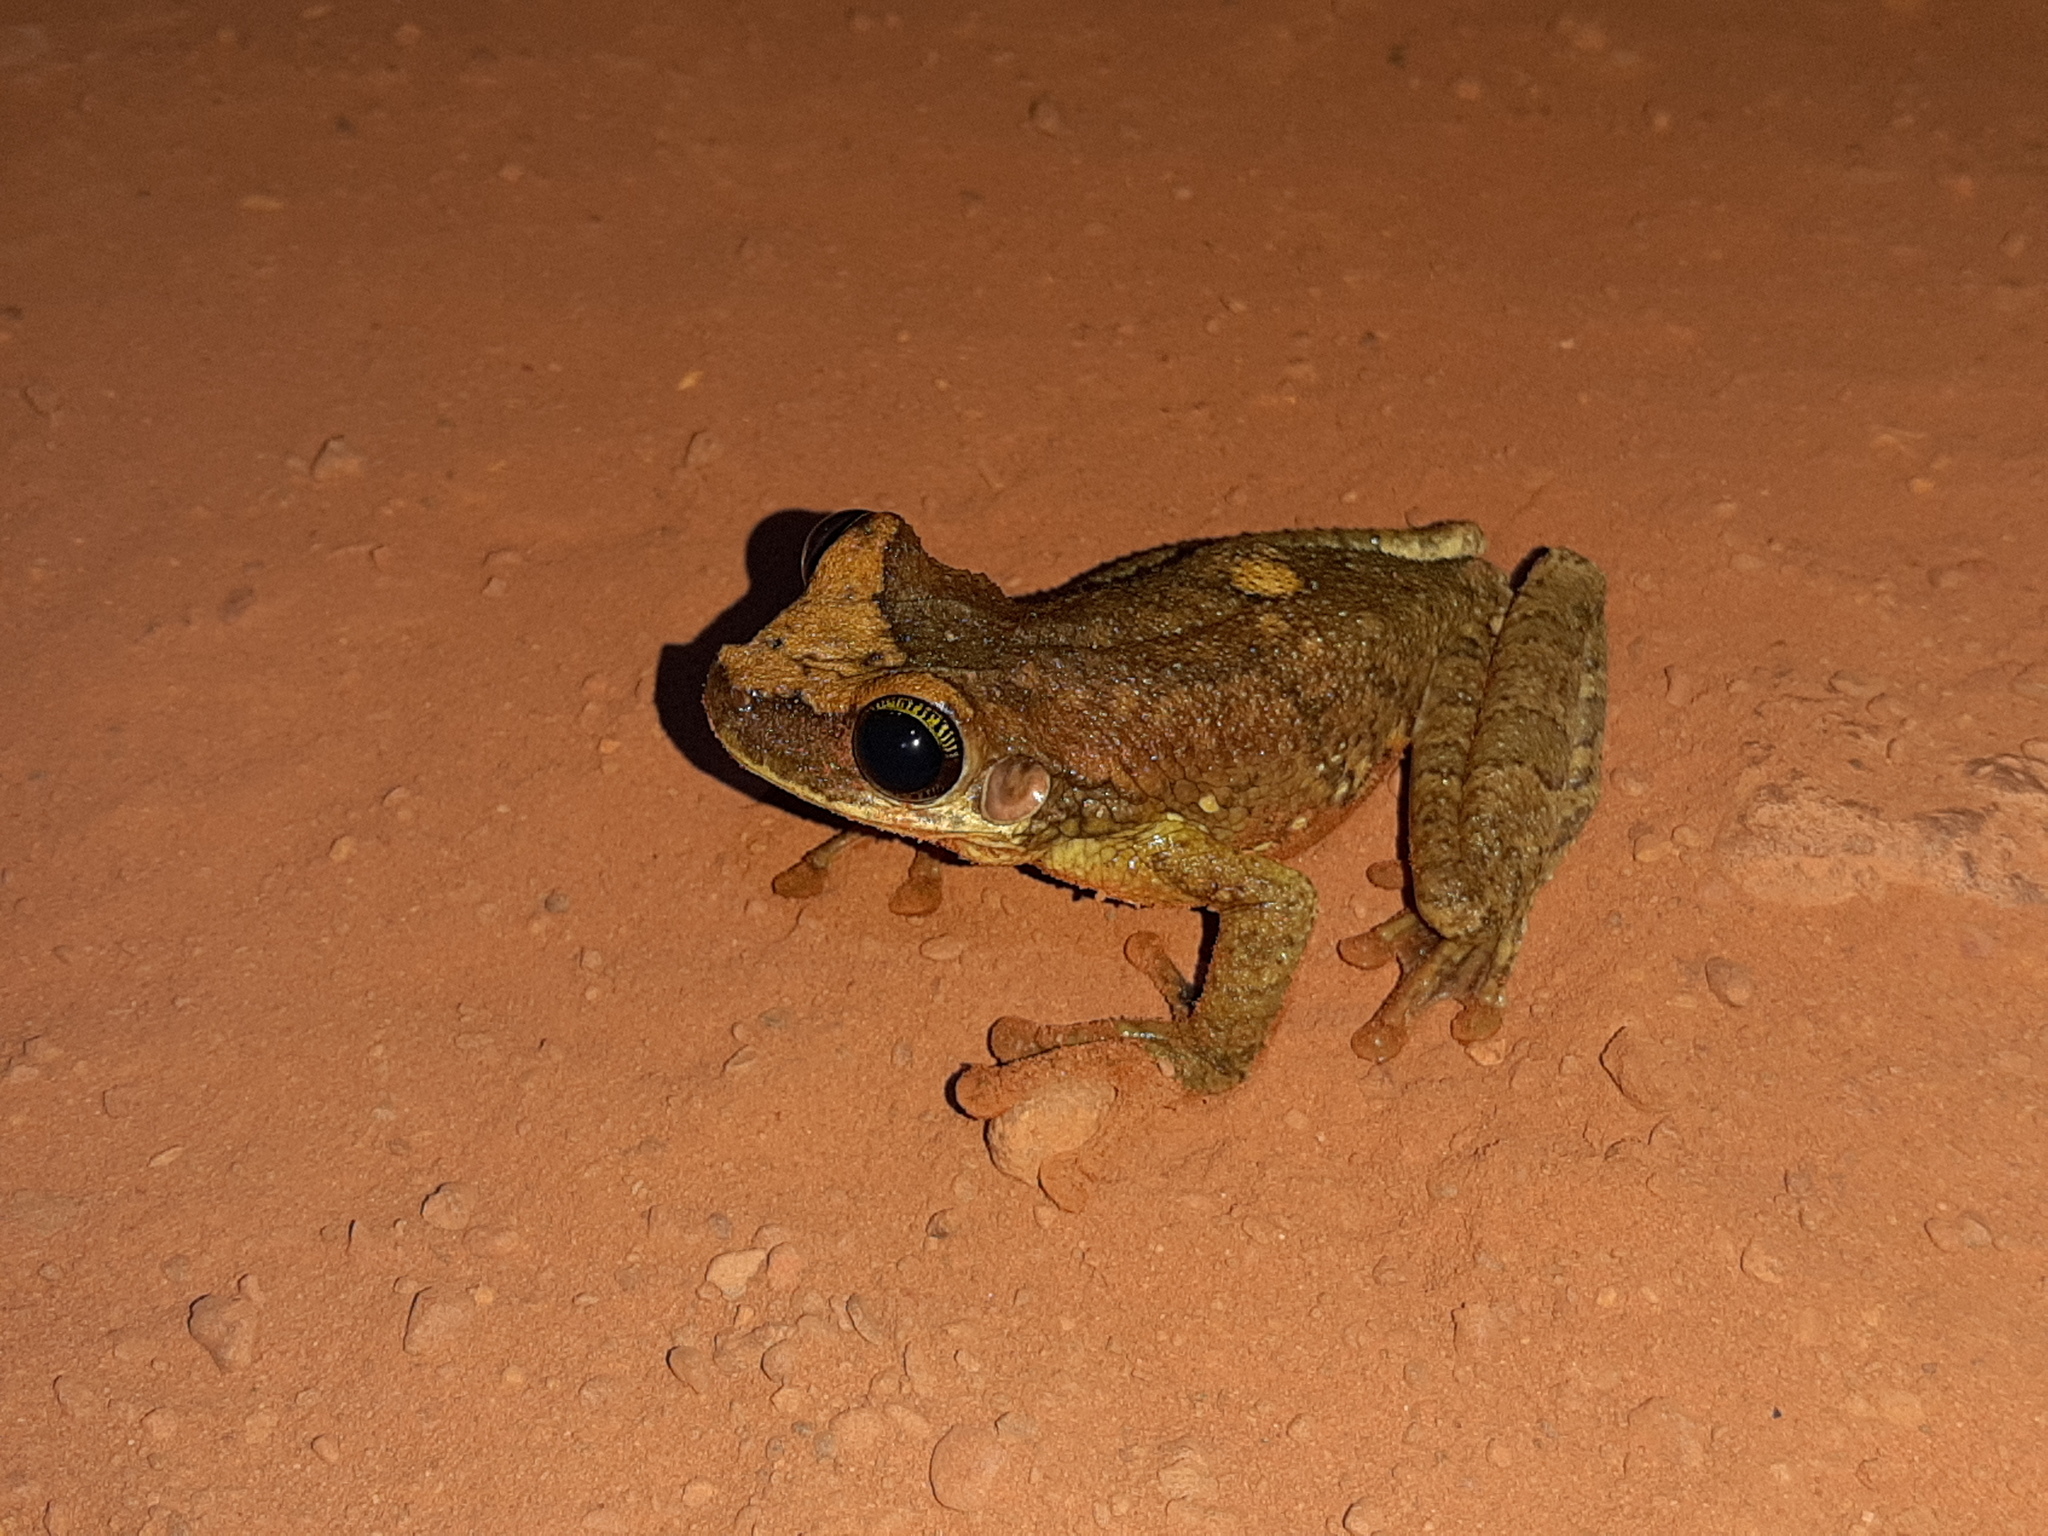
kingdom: Animalia
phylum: Chordata
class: Amphibia
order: Anura
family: Hylidae
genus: Osteocephalus
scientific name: Osteocephalus taurinus
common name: Manaus slender-legged treefrog
